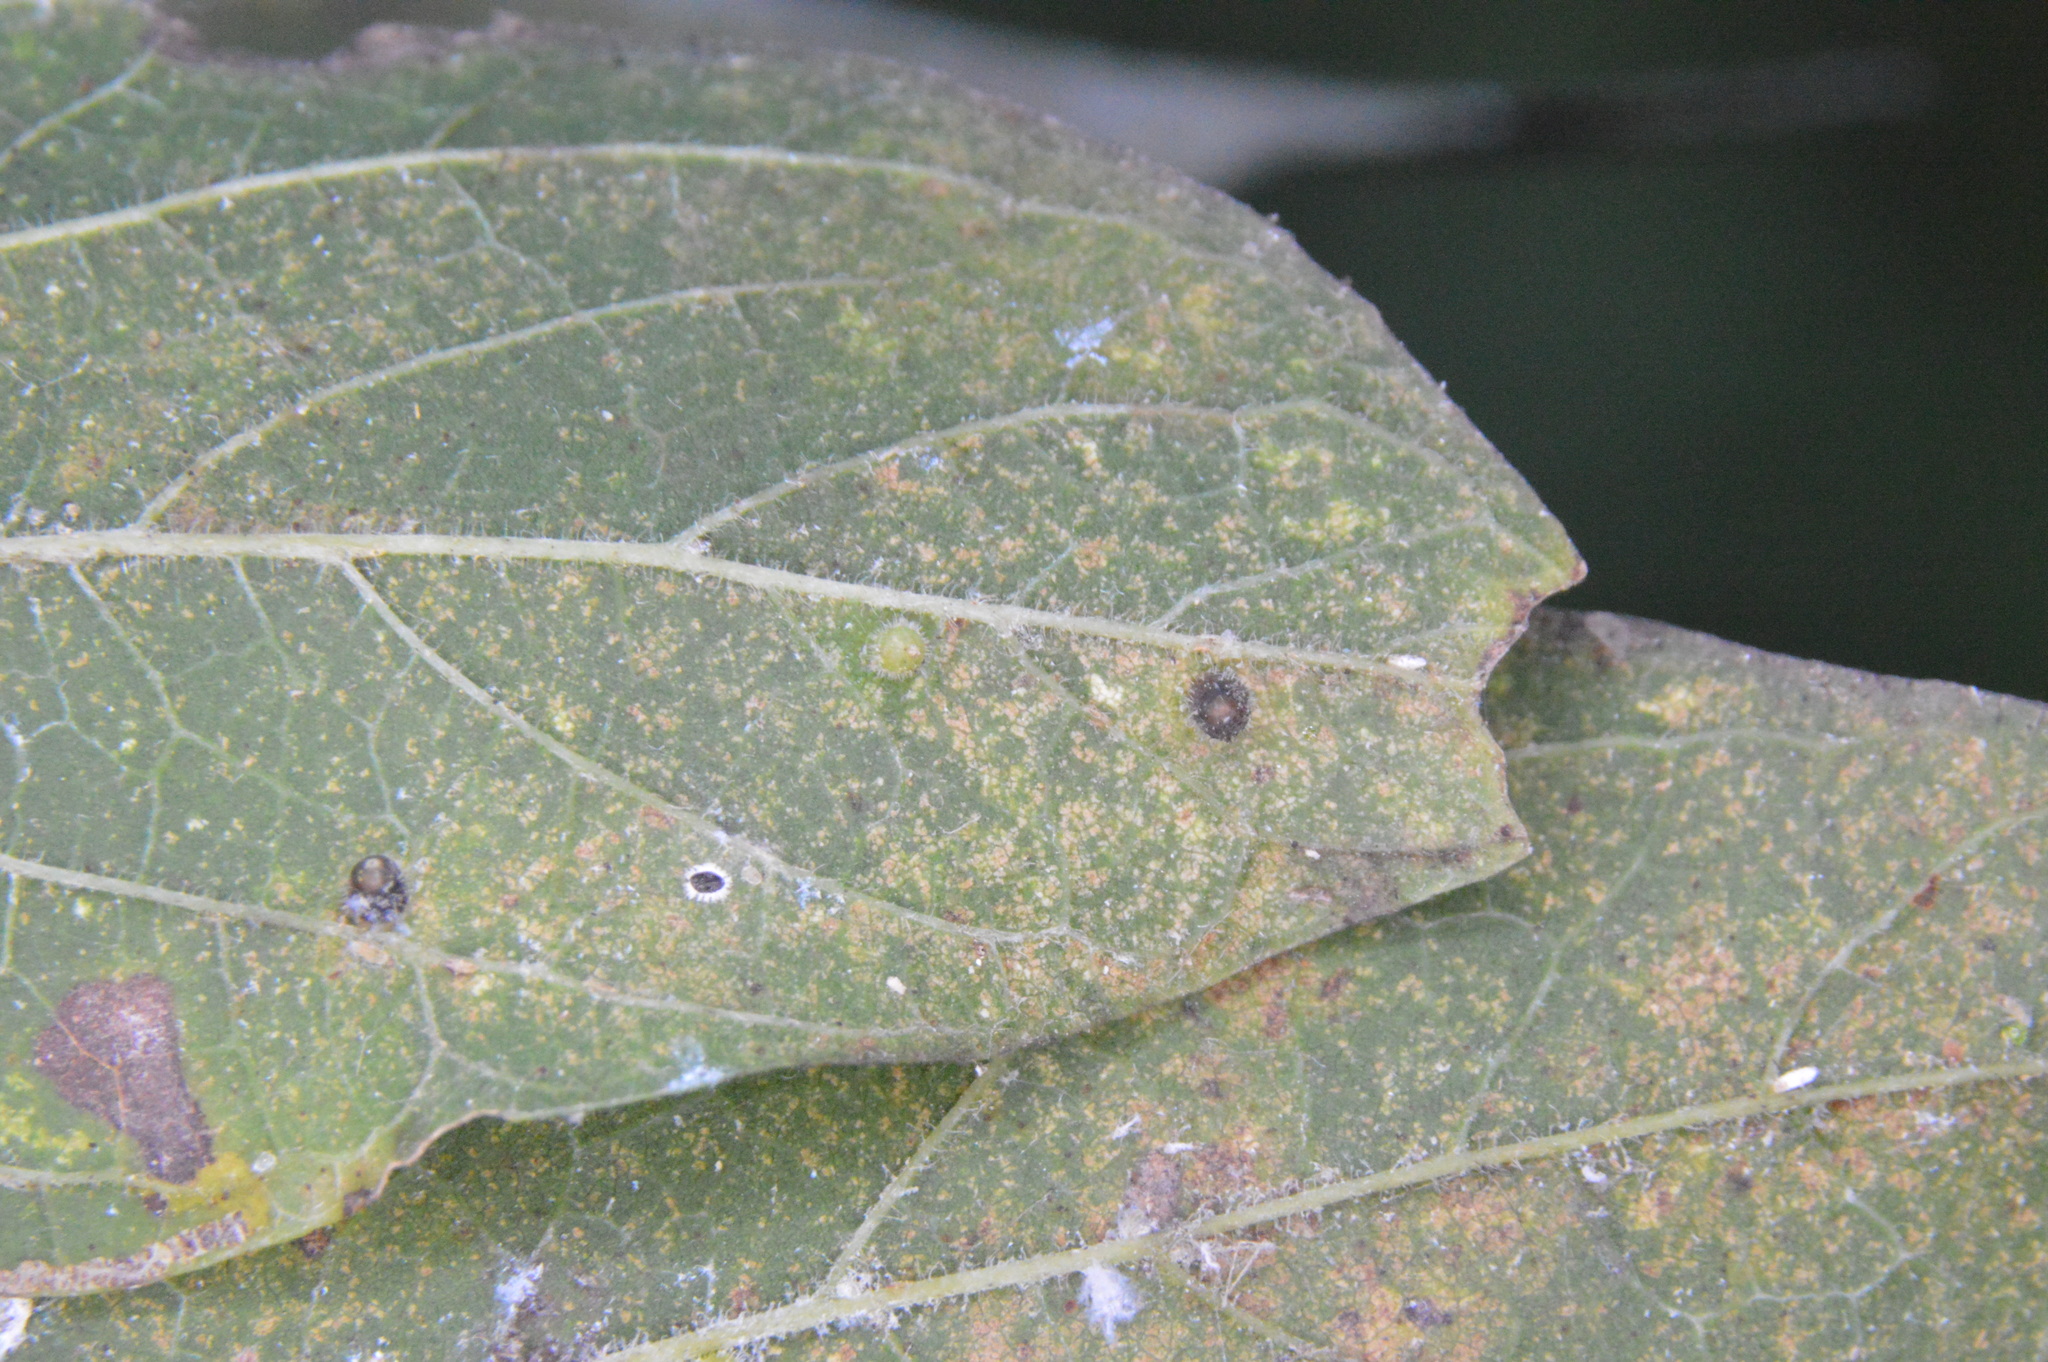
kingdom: Animalia
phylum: Arthropoda
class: Insecta
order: Diptera
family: Cecidomyiidae
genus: Celticecis
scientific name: Celticecis cupiformis
